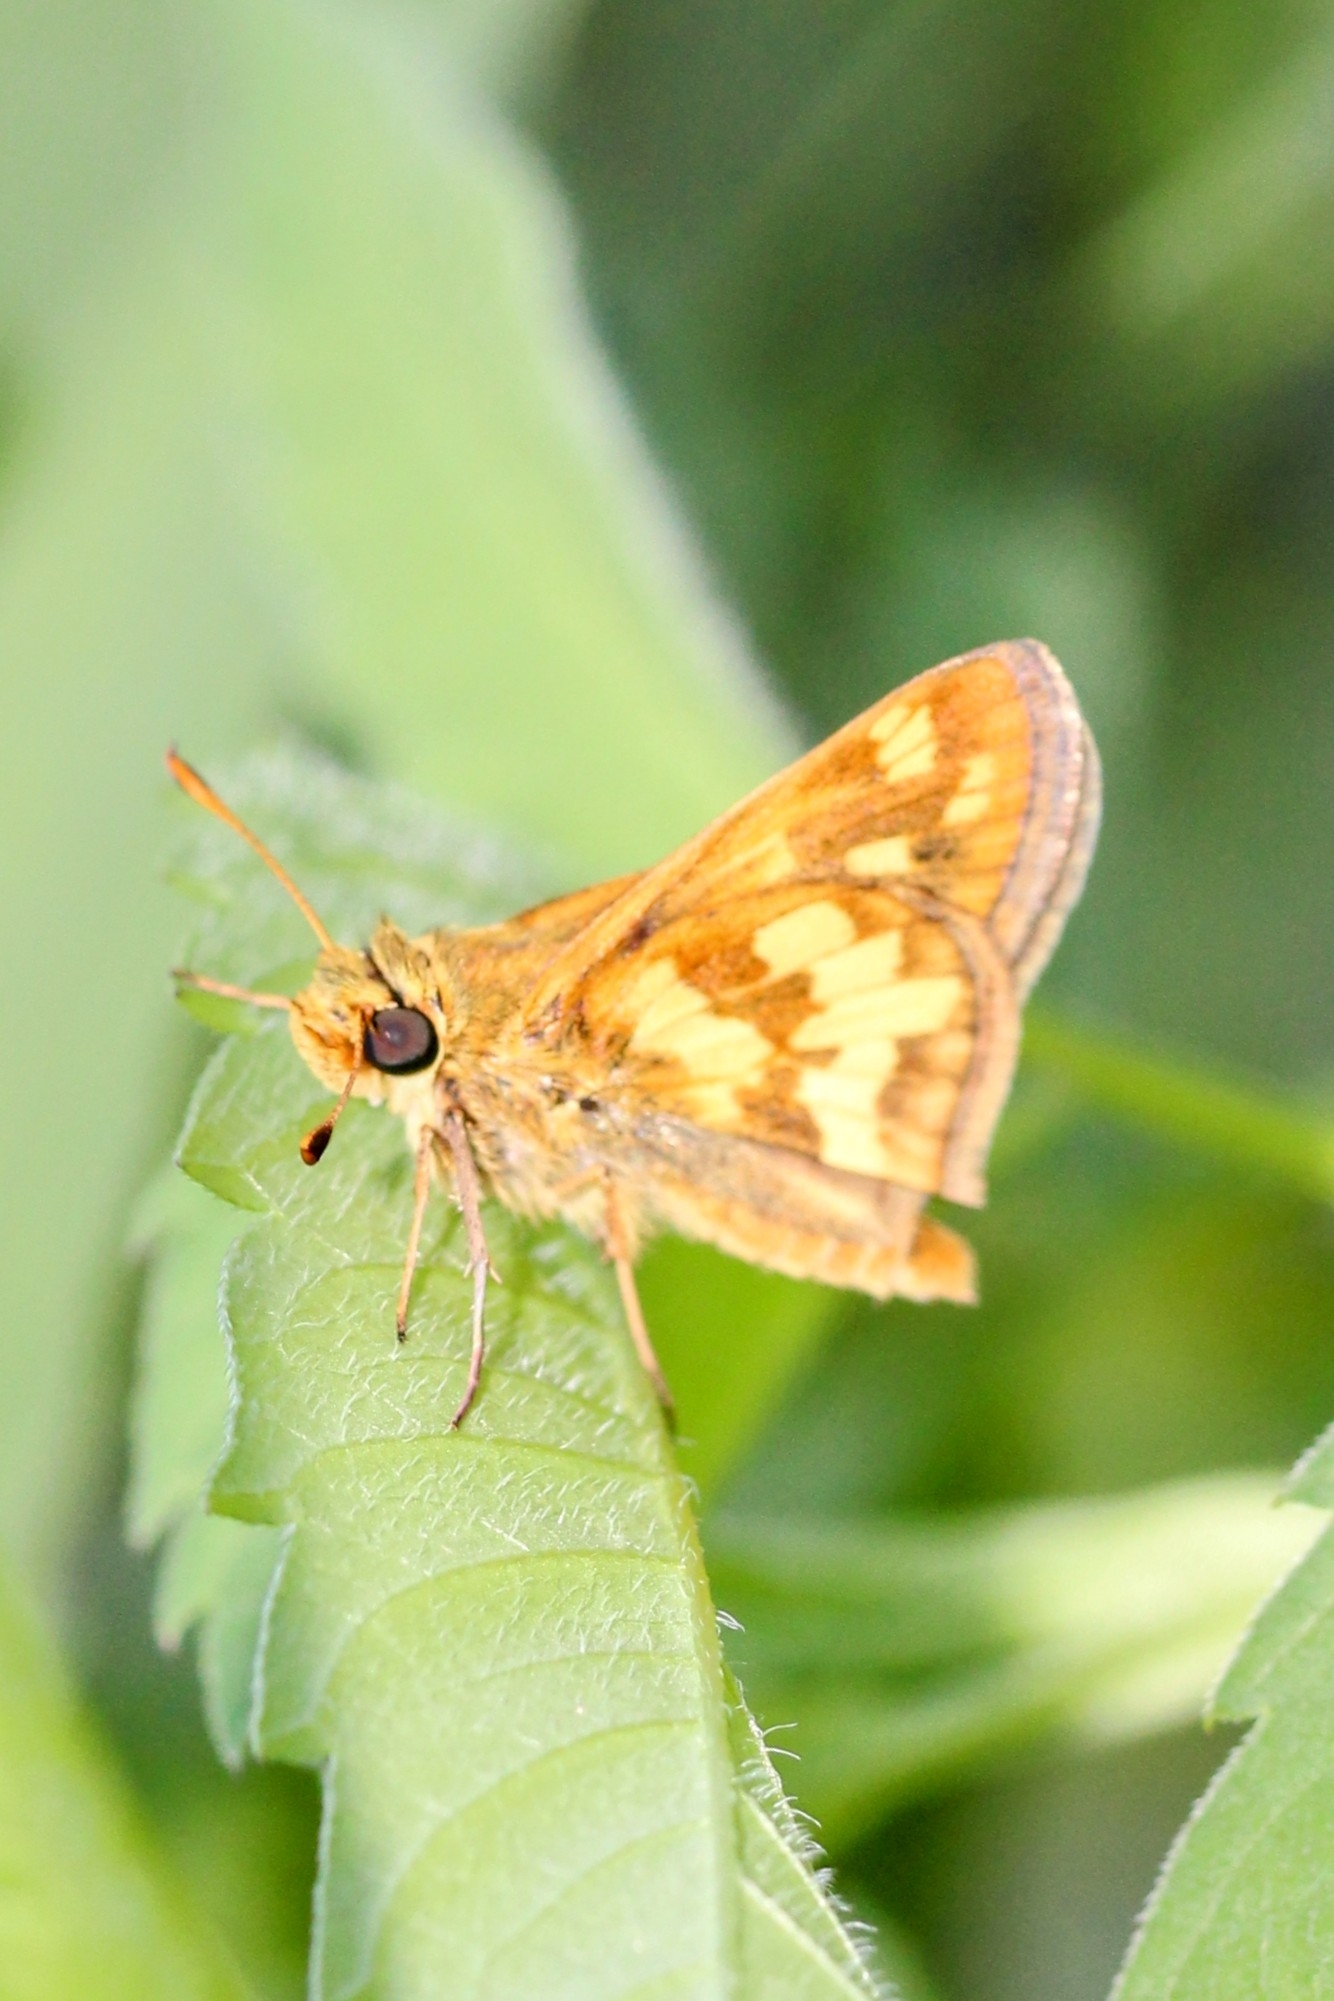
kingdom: Animalia
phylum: Arthropoda
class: Insecta
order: Lepidoptera
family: Hesperiidae
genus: Polites
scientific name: Polites coras
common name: Peck's skipper
